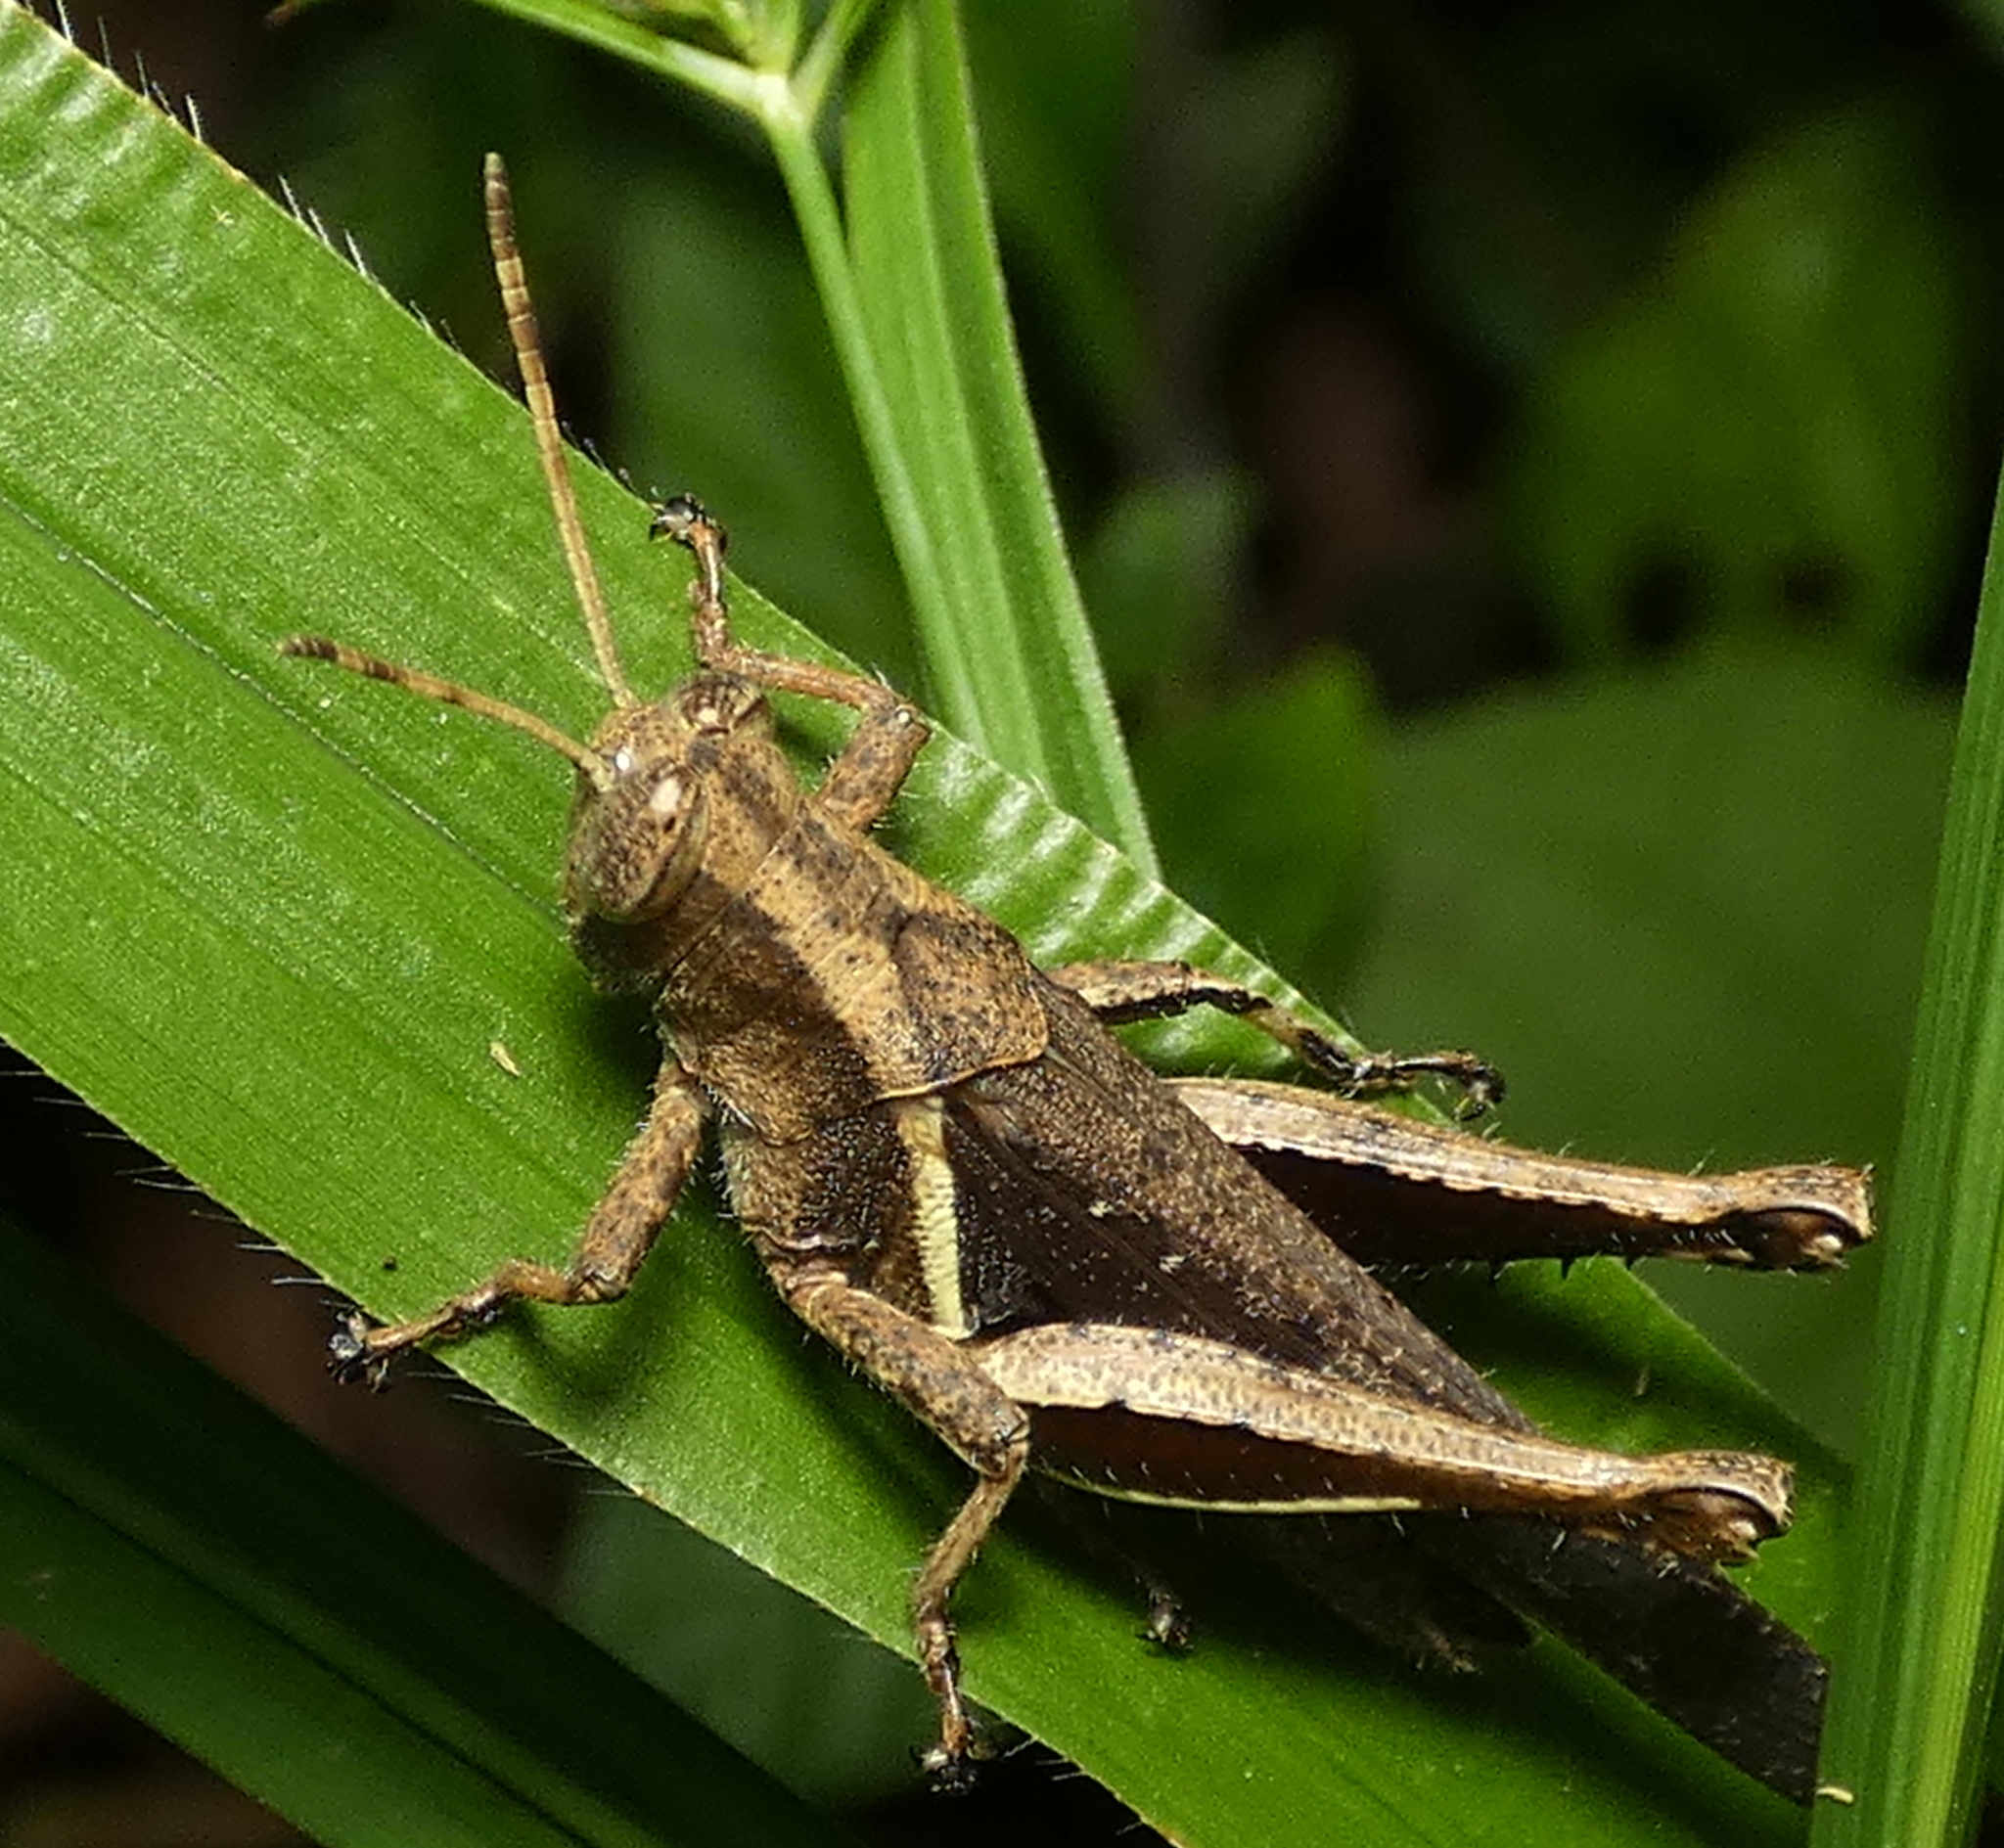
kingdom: Animalia
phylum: Arthropoda
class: Insecta
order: Orthoptera
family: Acrididae
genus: Abracris
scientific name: Abracris flavolineata
